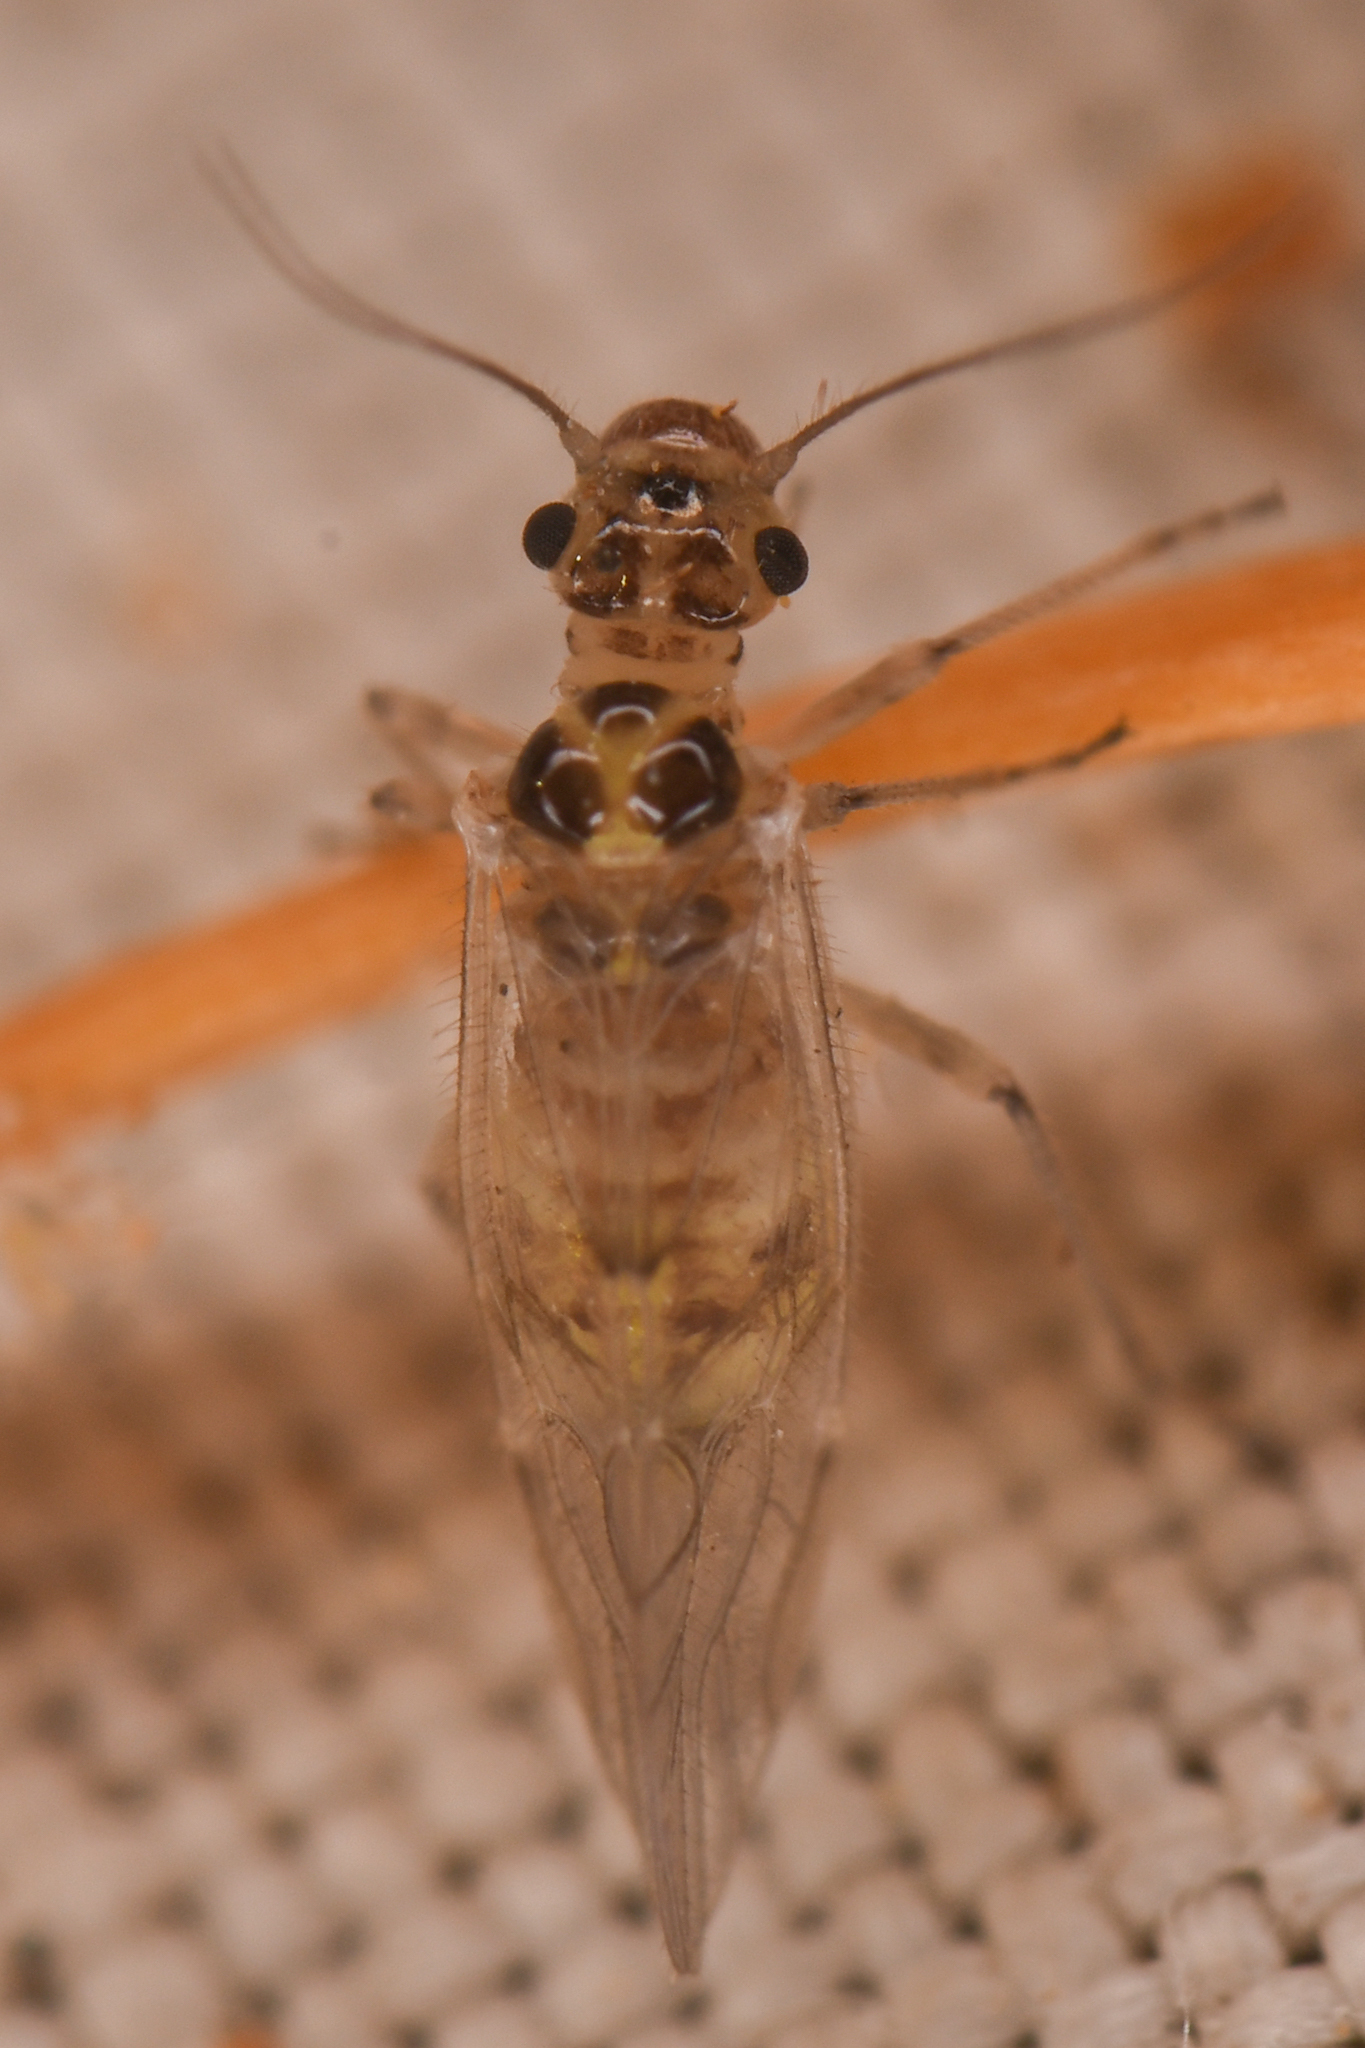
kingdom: Animalia
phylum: Arthropoda
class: Insecta
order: Psocodea
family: Dasydemellidae
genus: Teliapsocus
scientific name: Teliapsocus conterminus
